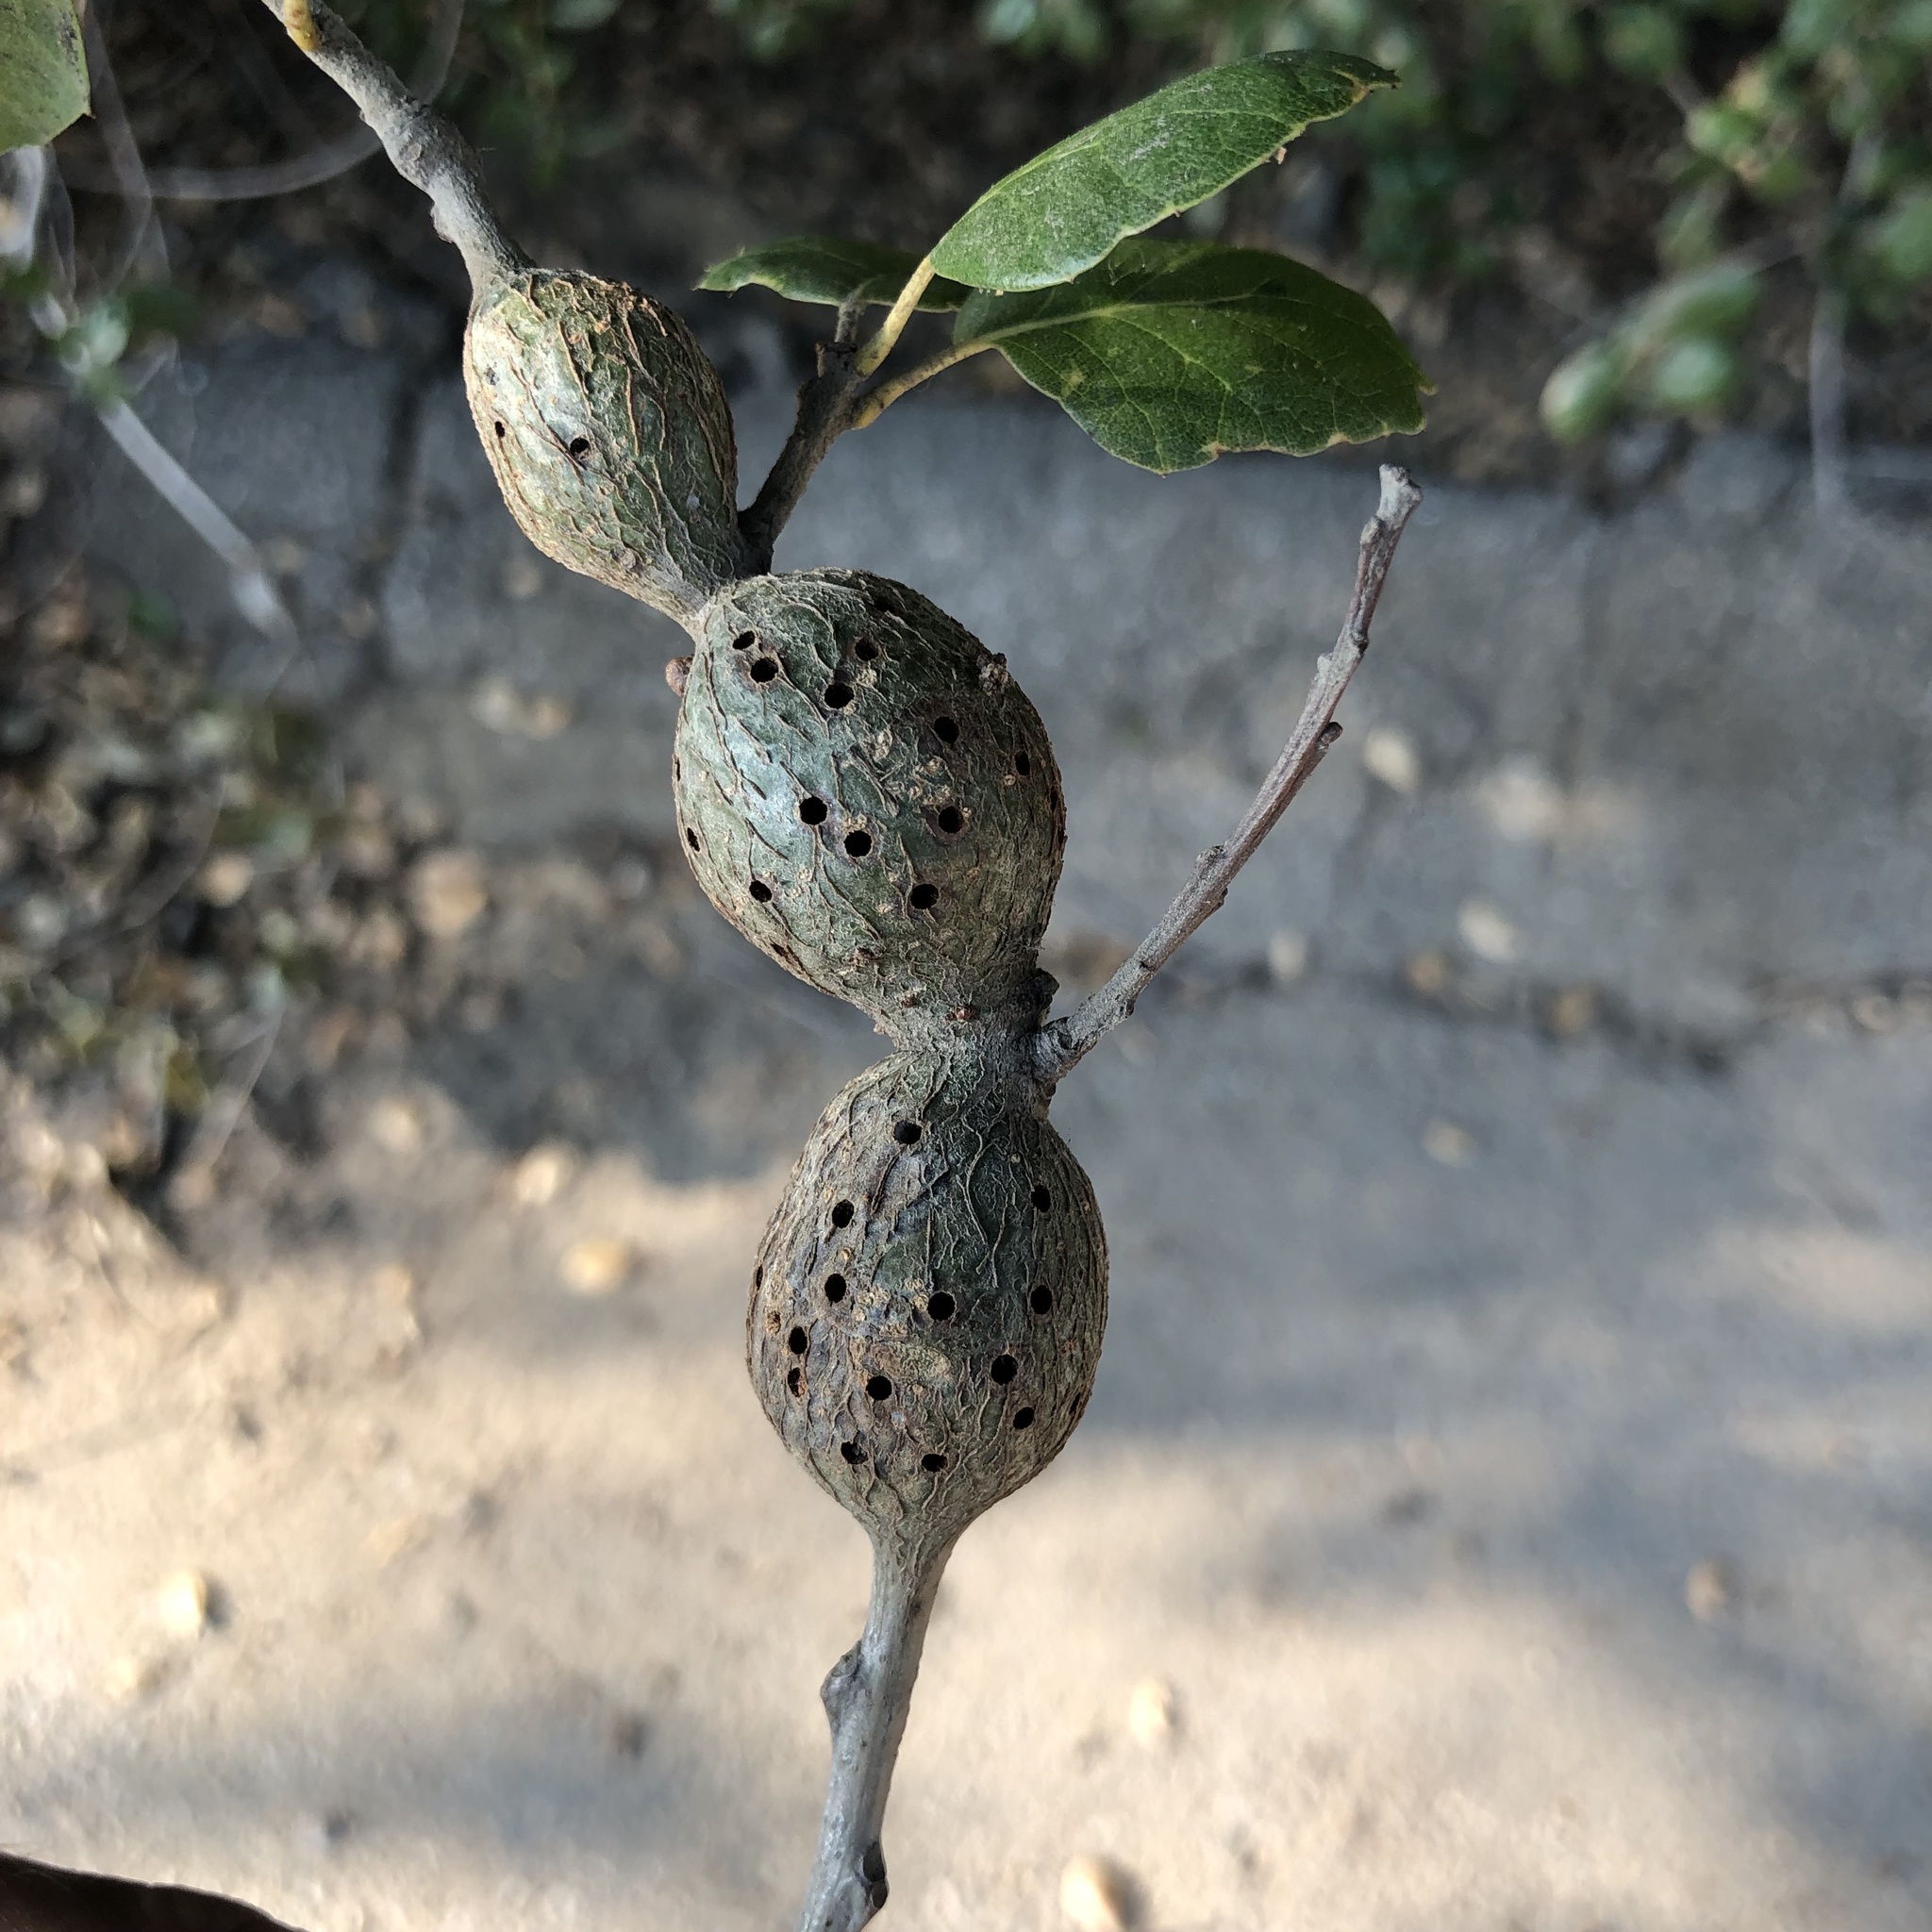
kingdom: Animalia
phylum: Arthropoda
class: Insecta
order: Hymenoptera
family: Cynipidae
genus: Callirhytis
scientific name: Callirhytis
